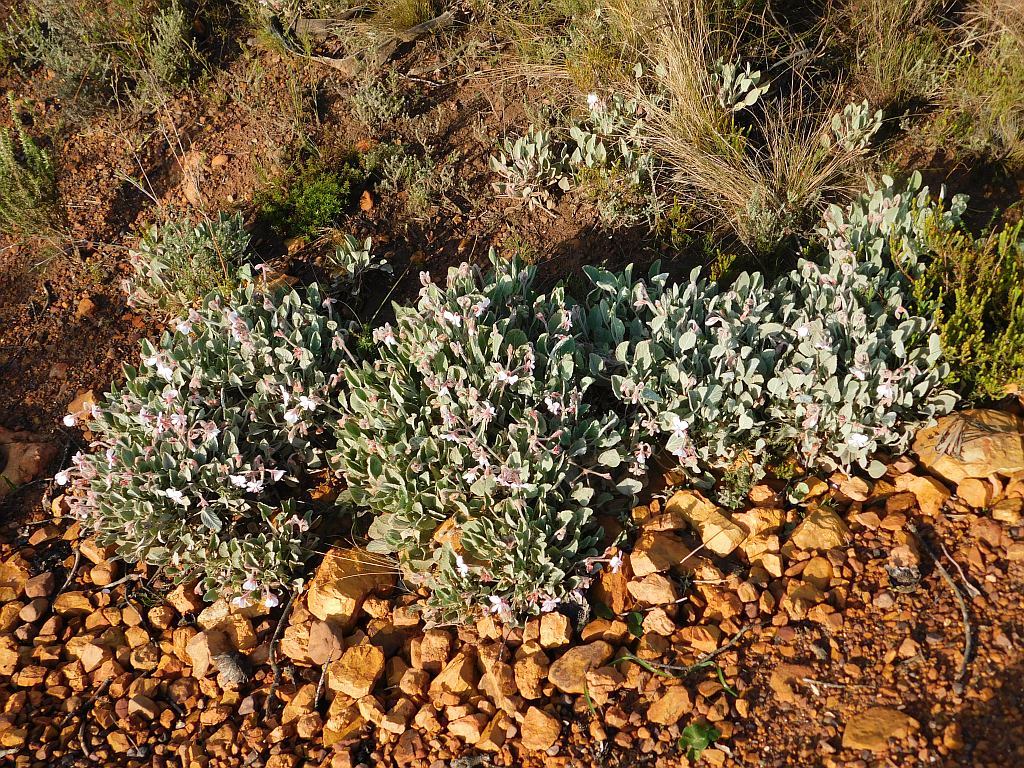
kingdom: Plantae
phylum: Tracheophyta
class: Magnoliopsida
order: Geraniales
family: Geraniaceae
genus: Pelargonium
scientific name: Pelargonium ovale
